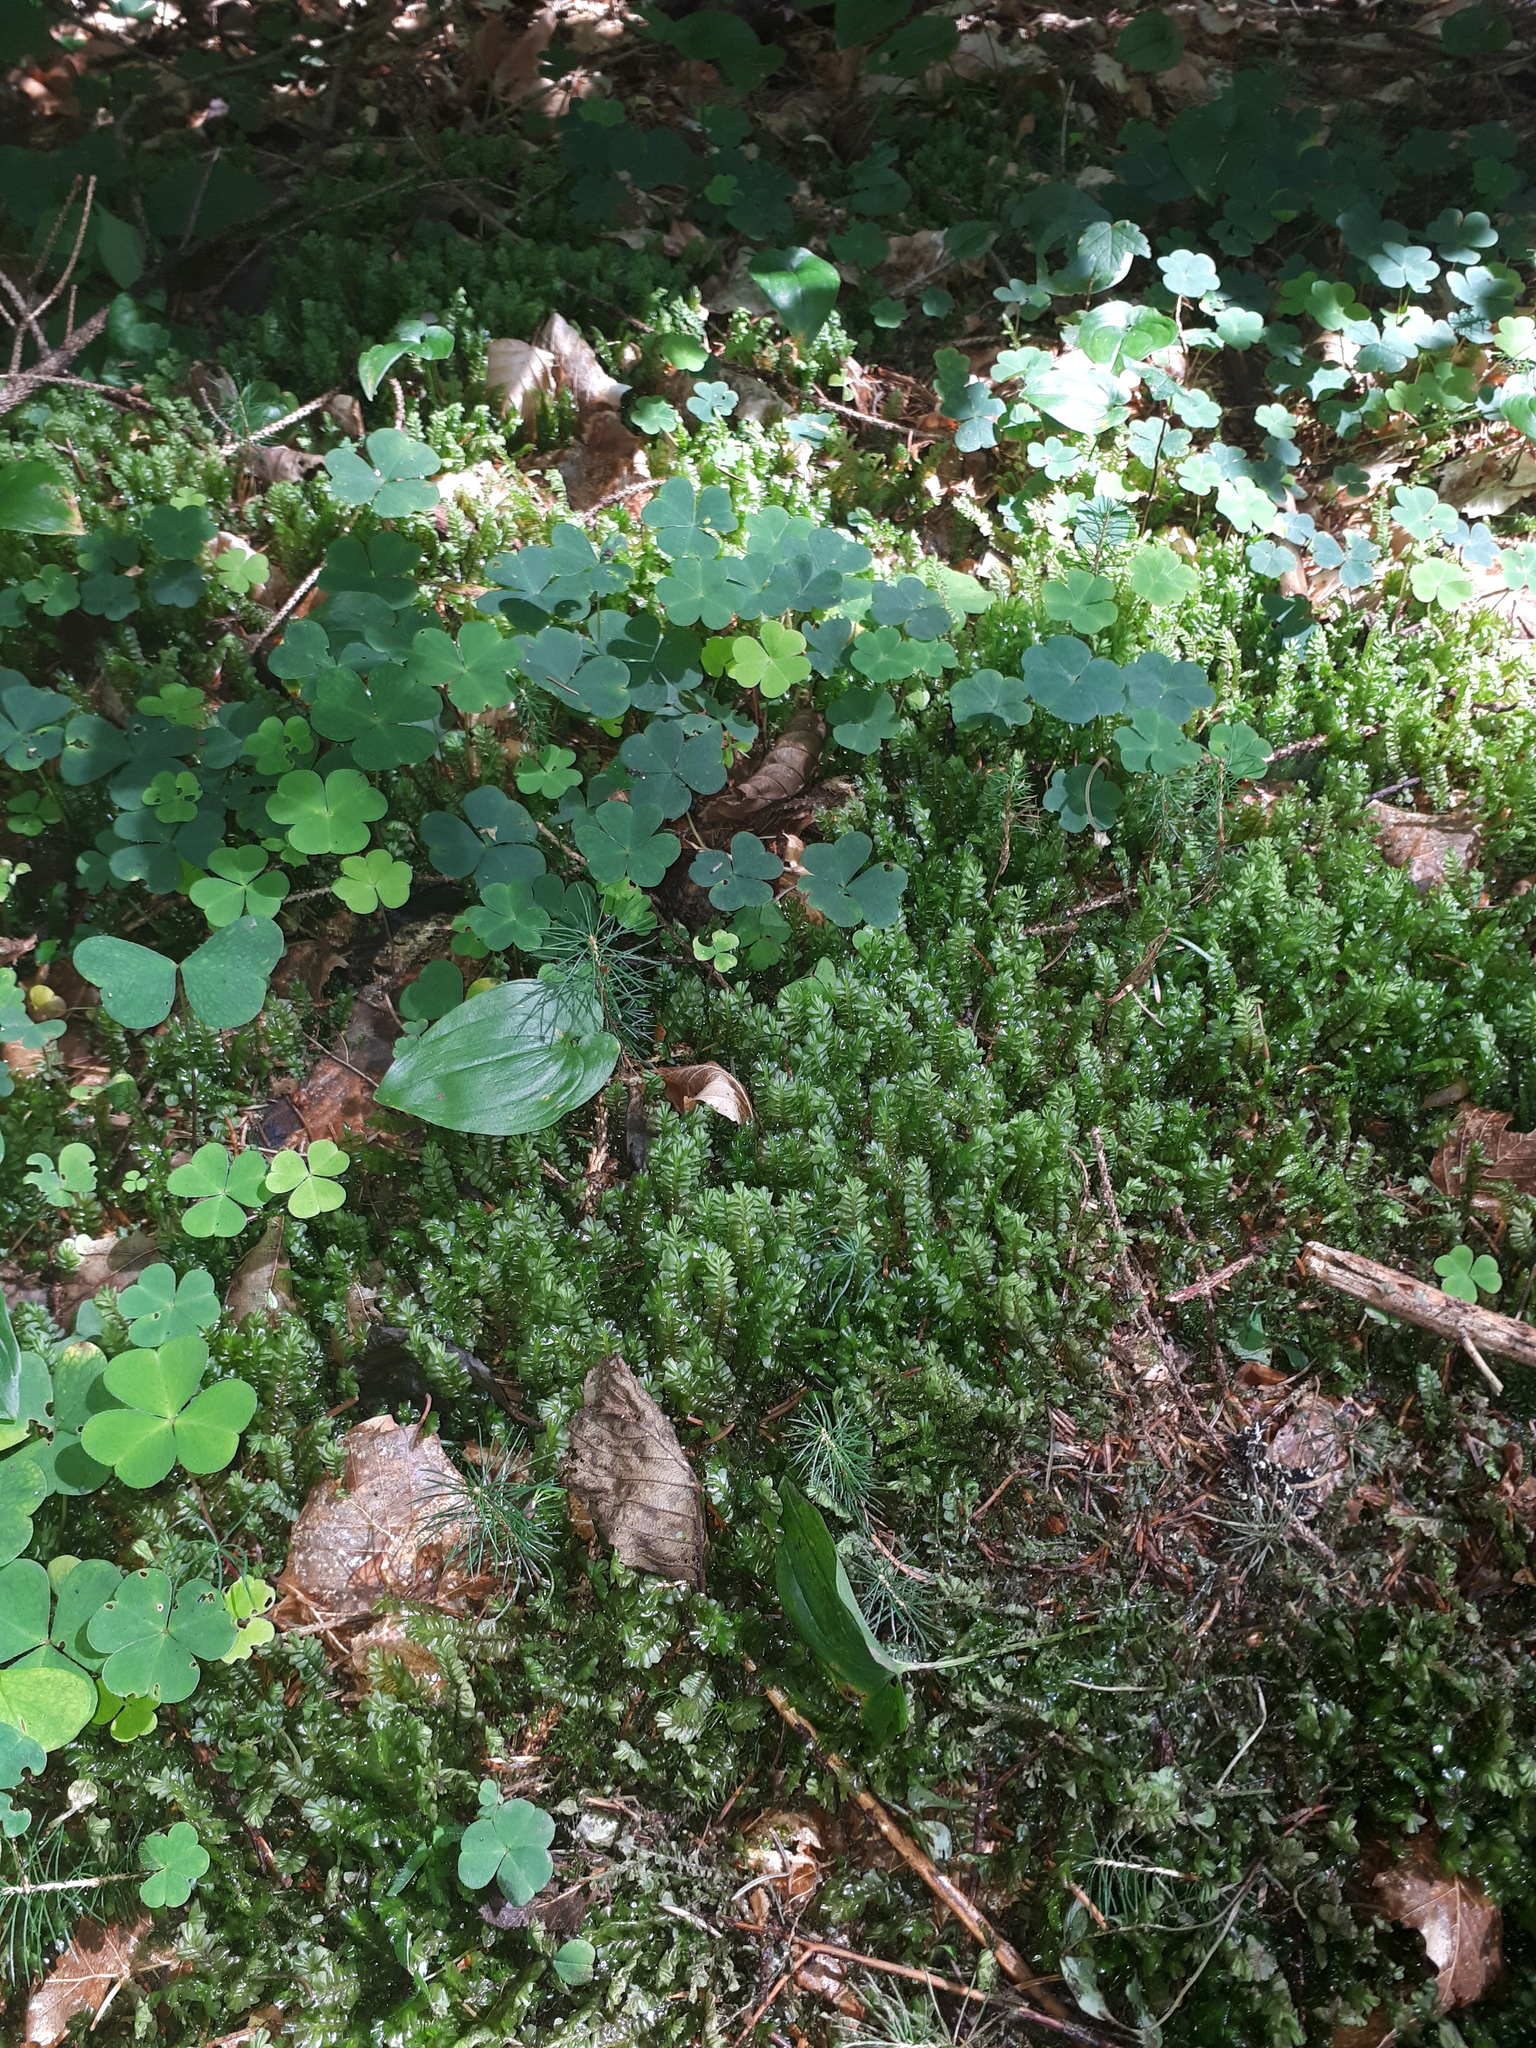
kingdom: Plantae
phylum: Marchantiophyta
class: Jungermanniopsida
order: Jungermanniales
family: Plagiochilaceae
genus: Plagiochila
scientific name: Plagiochila asplenioides
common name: Greater featherwort
